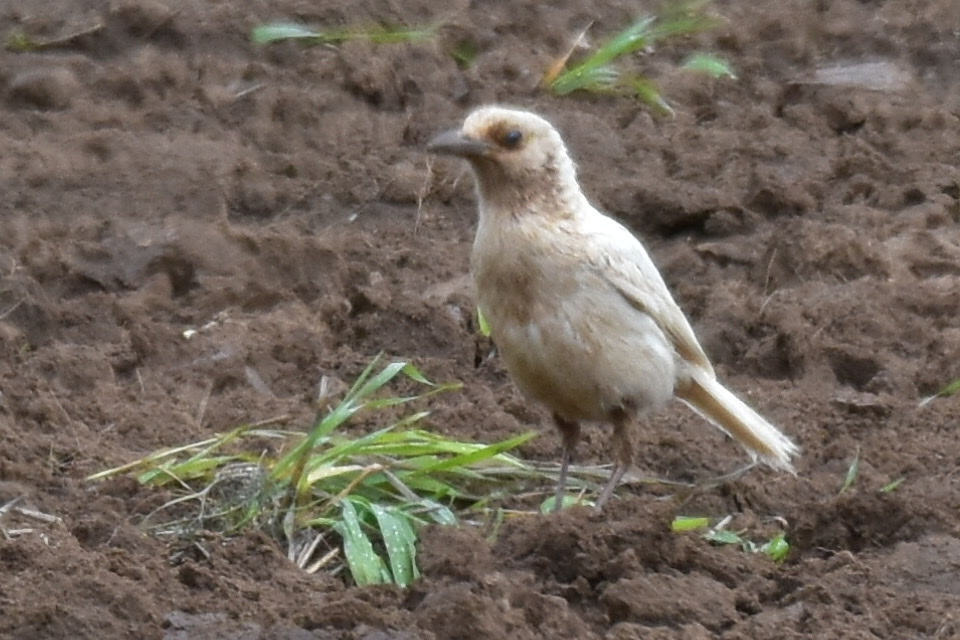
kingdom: Animalia
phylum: Chordata
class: Aves
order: Passeriformes
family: Corvidae
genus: Pica
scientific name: Pica pica
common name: Eurasian magpie
